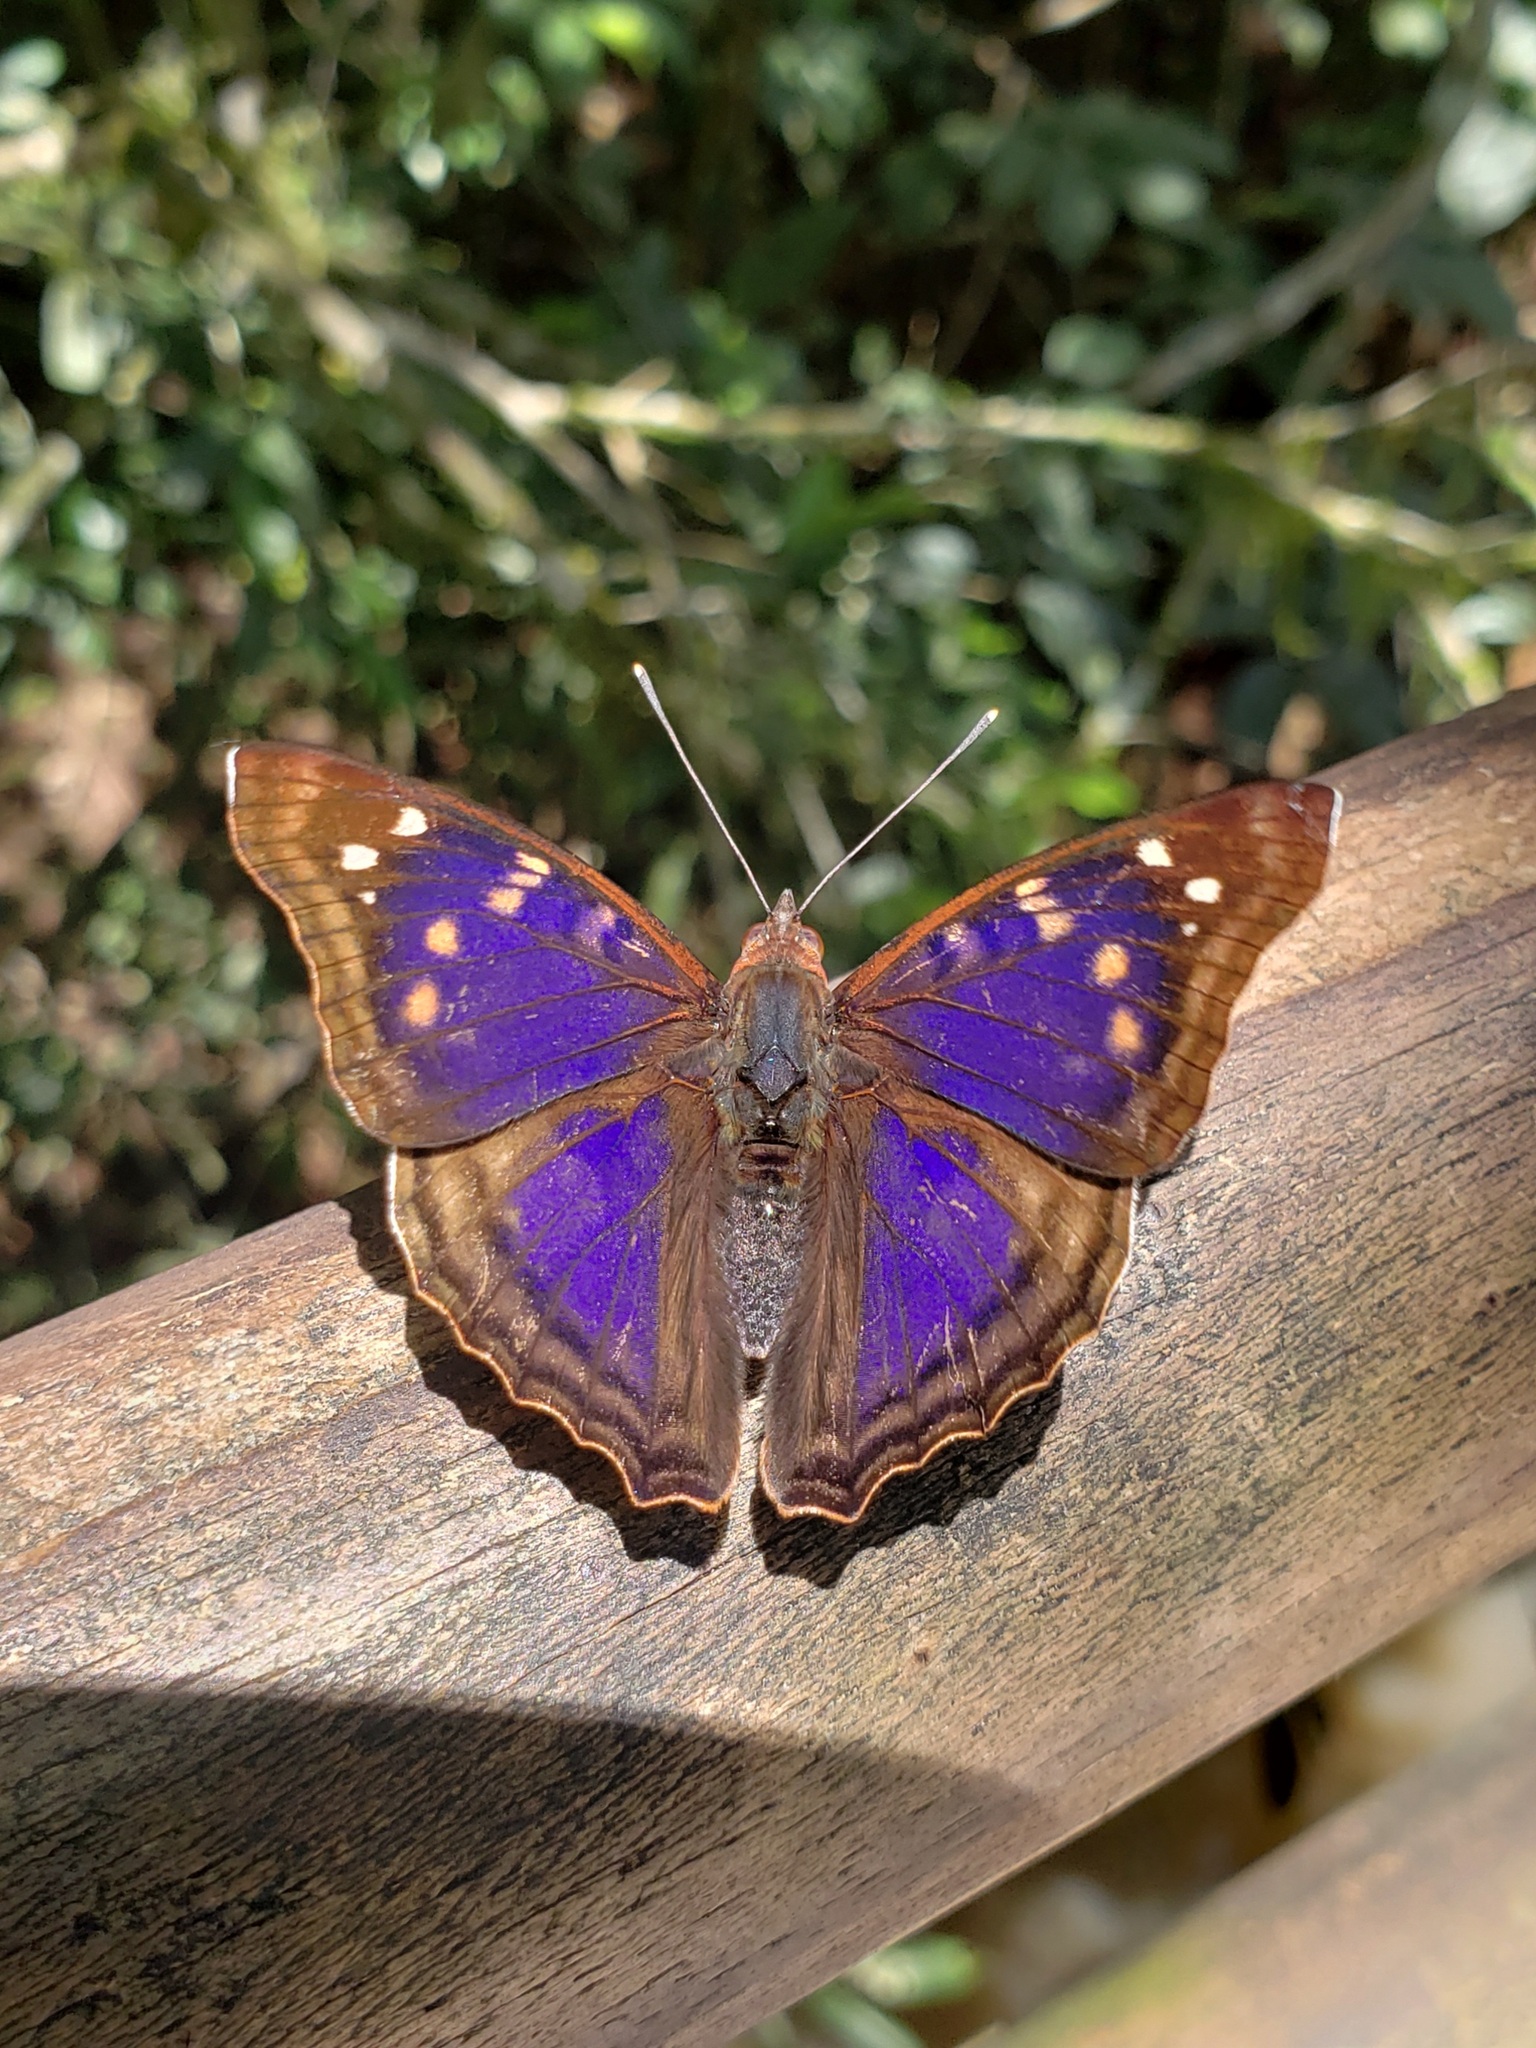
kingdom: Animalia
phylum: Arthropoda
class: Insecta
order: Lepidoptera
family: Nymphalidae
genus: Doxocopa
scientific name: Doxocopa agathina
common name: Agathina emperor
